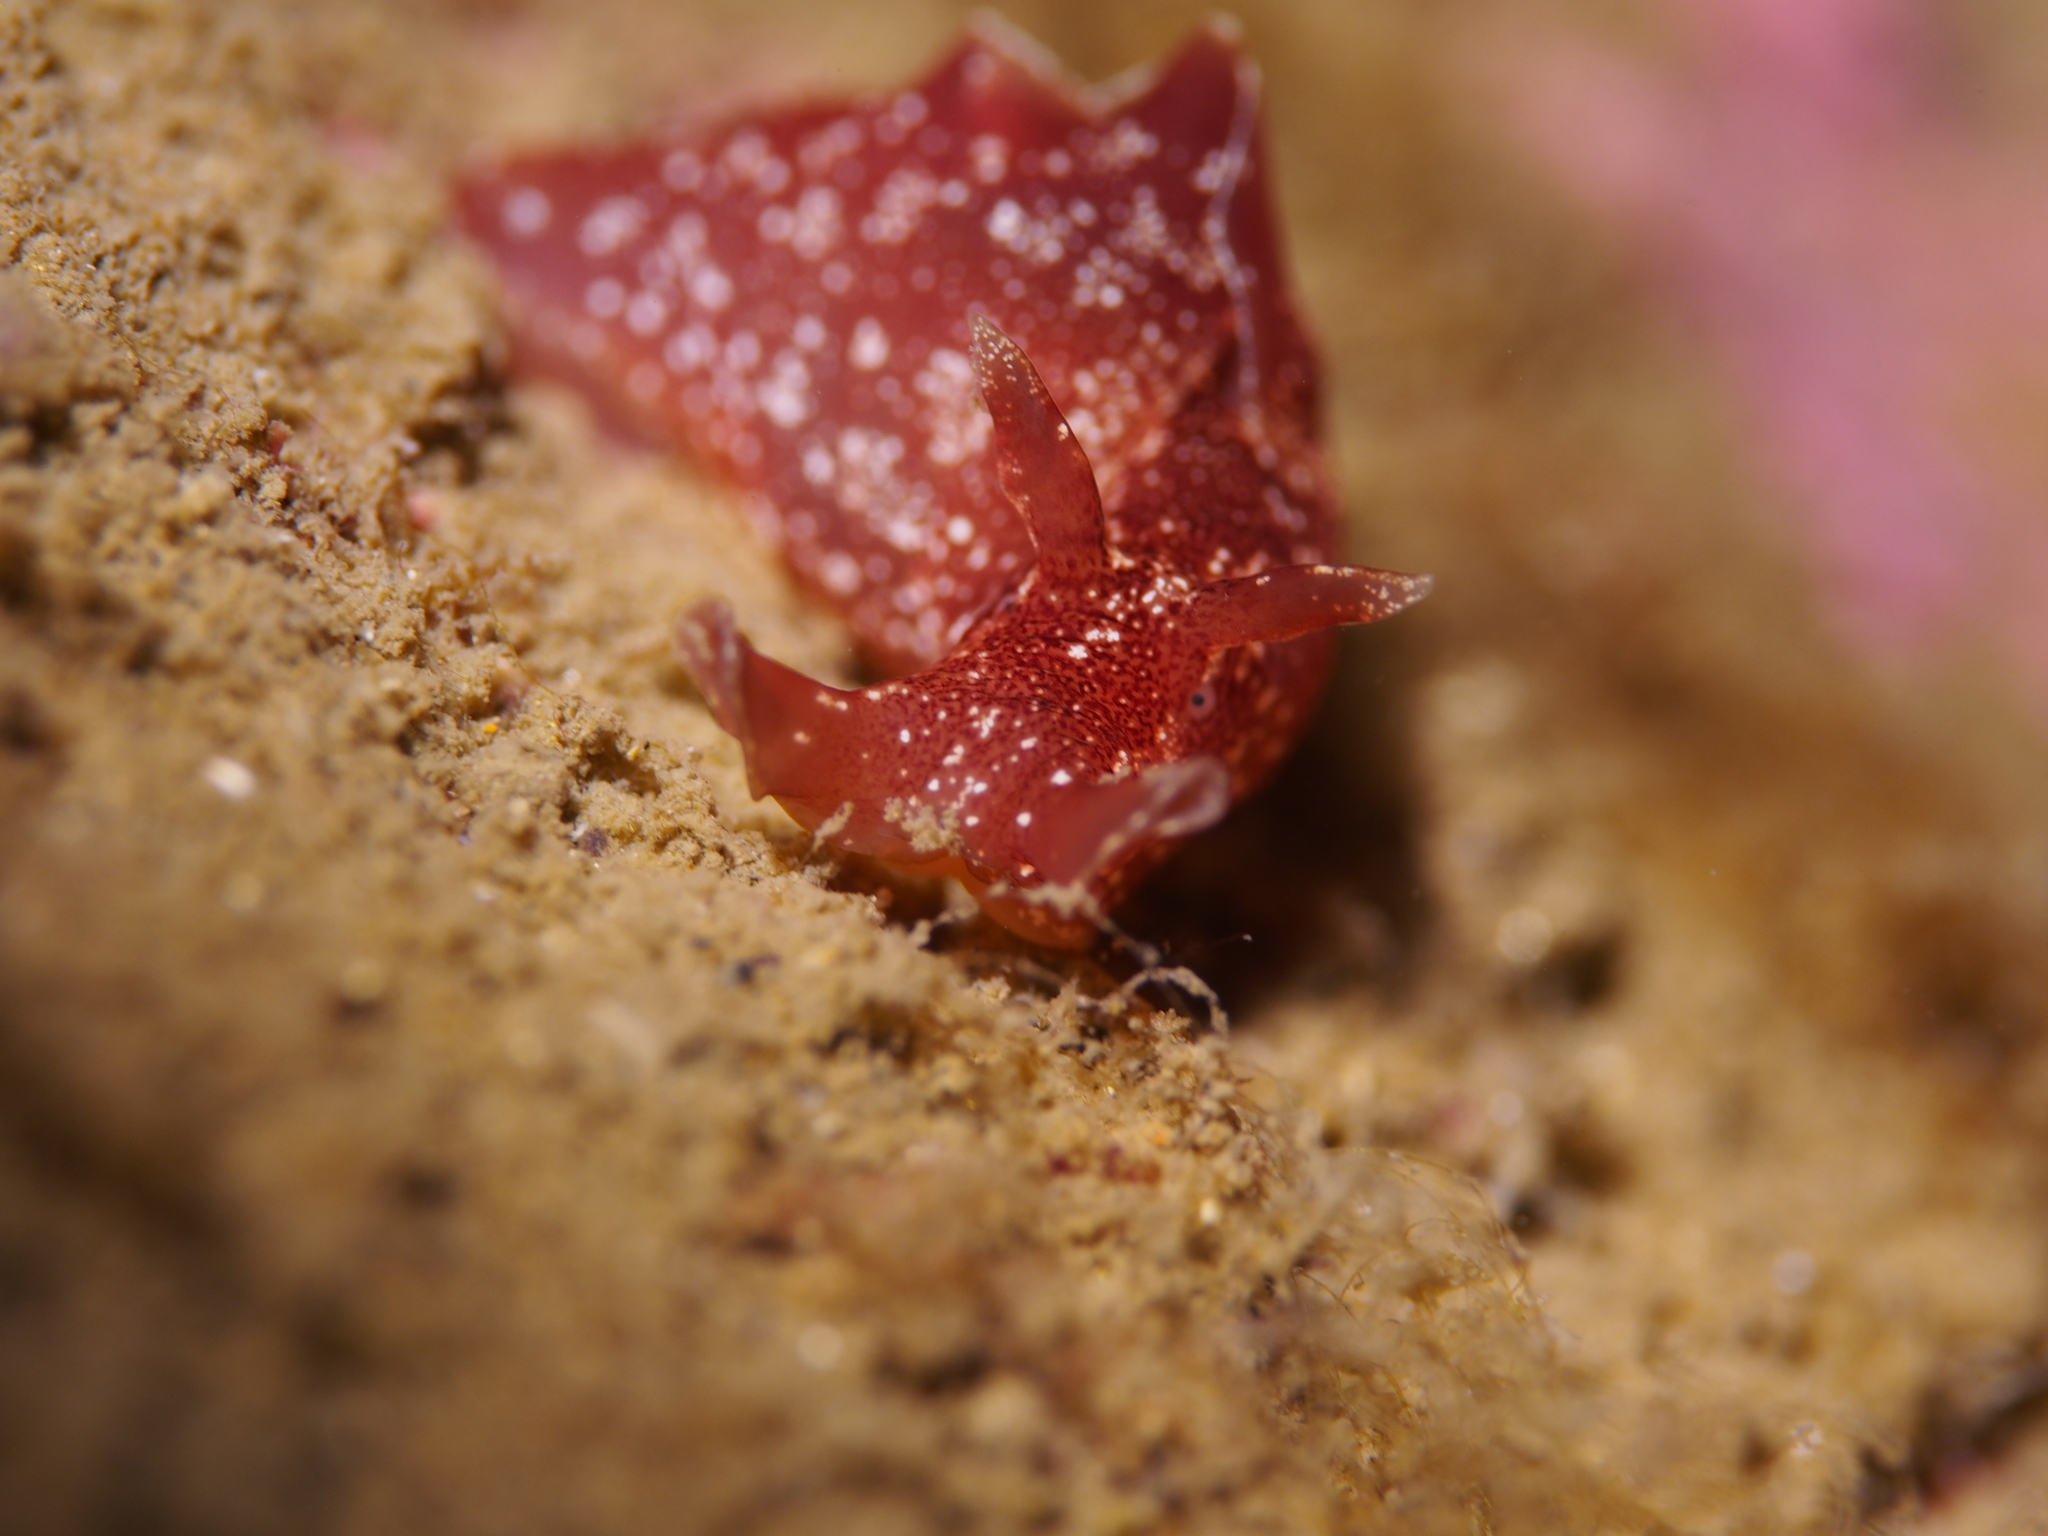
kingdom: Animalia
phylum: Mollusca
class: Gastropoda
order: Aplysiida
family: Aplysiidae
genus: Aplysia
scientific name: Aplysia punctata
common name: Common sea hare
